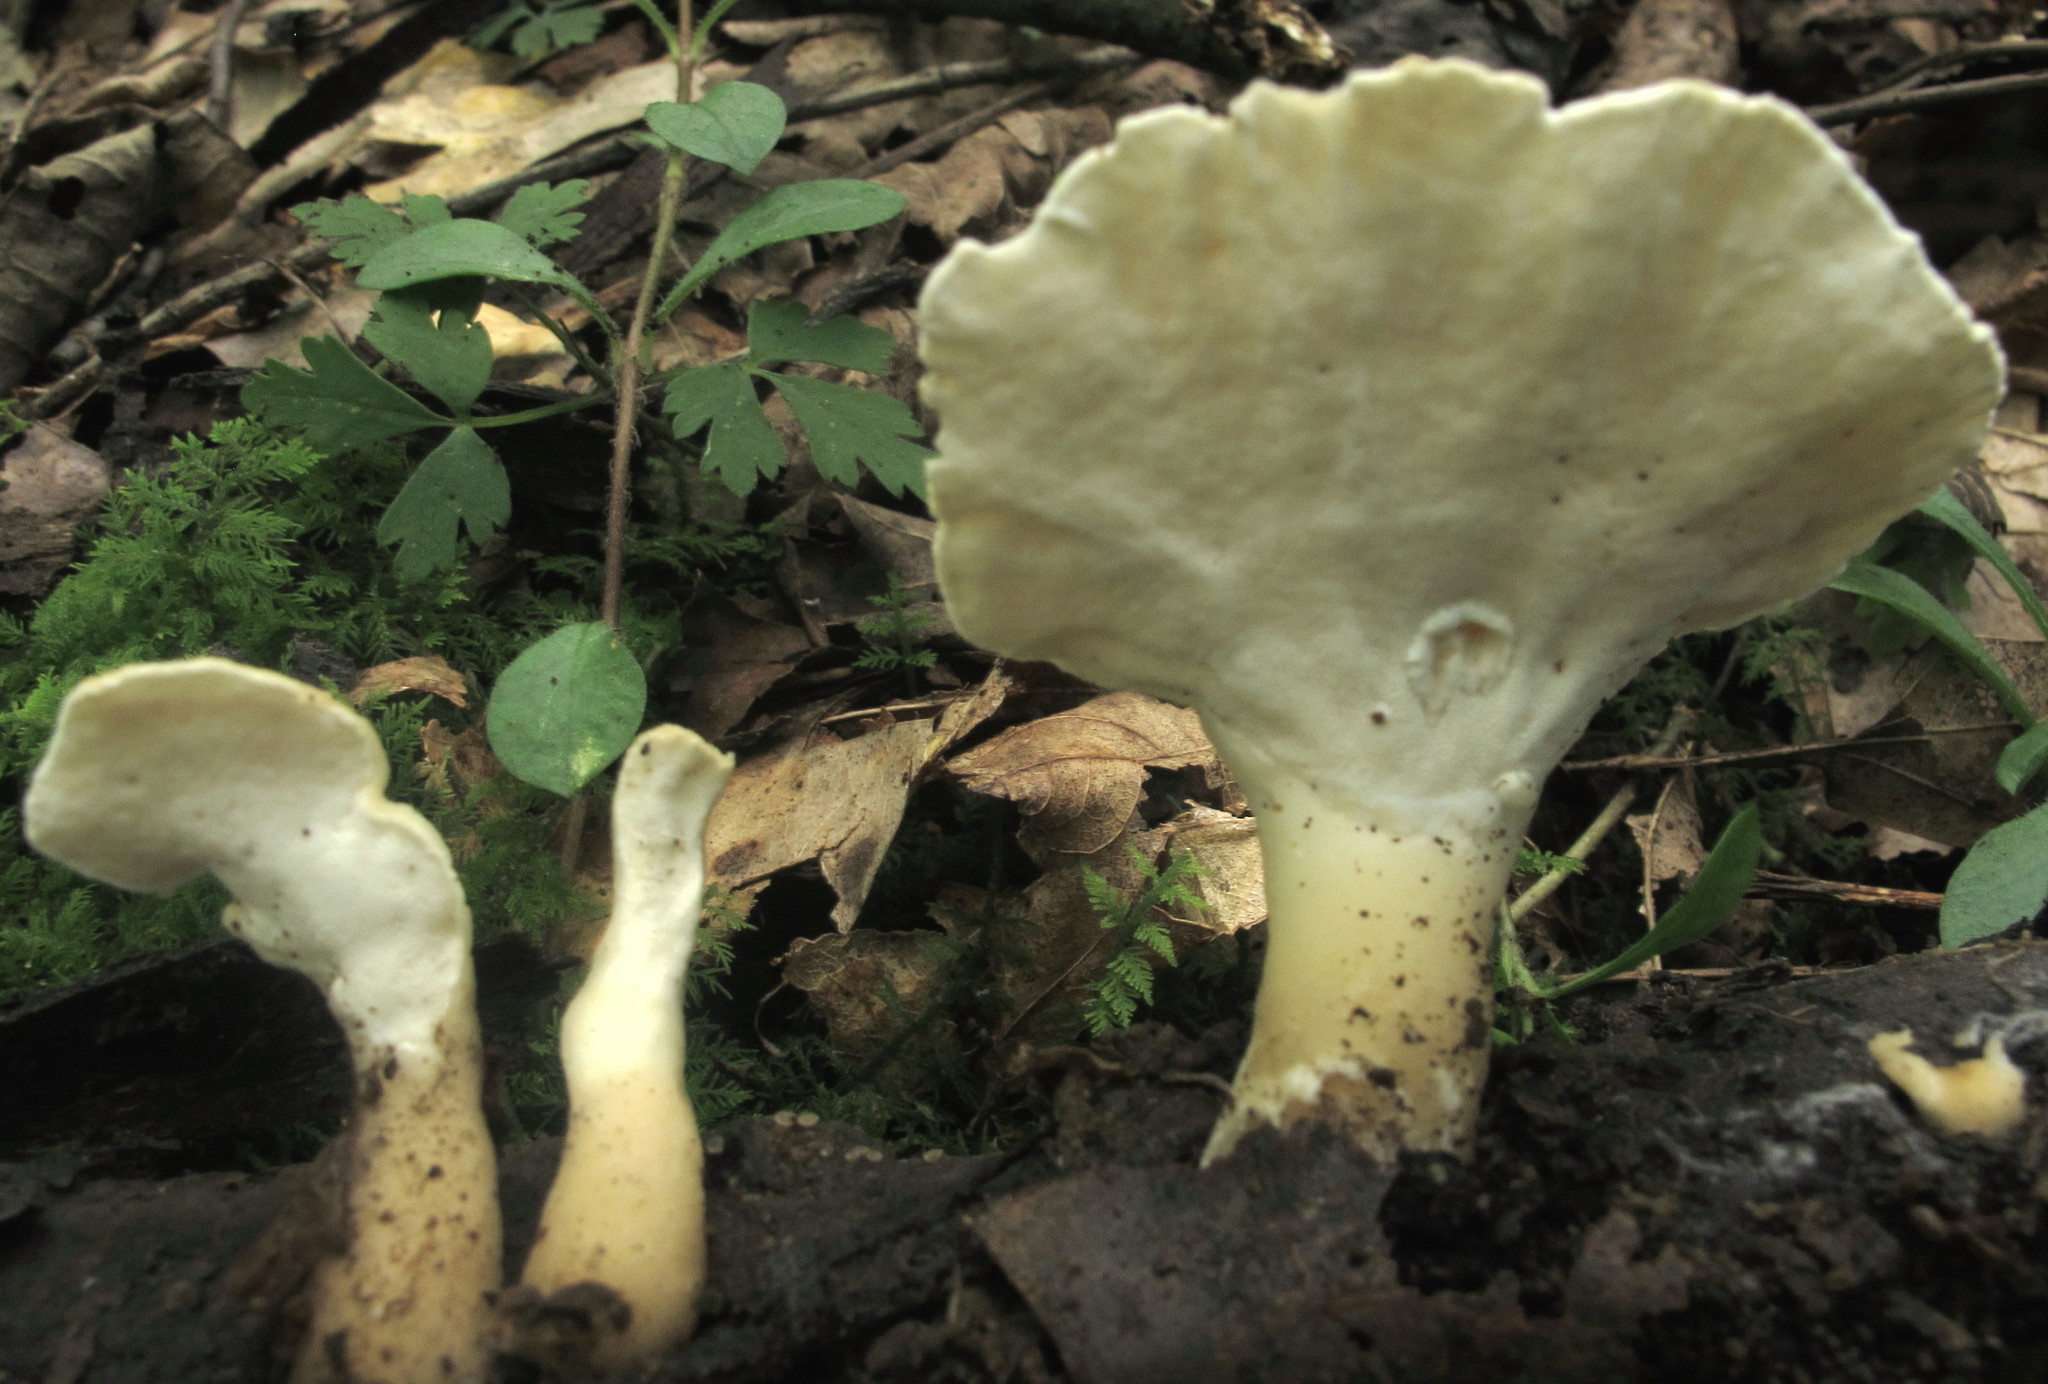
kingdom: Fungi
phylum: Basidiomycota
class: Agaricomycetes
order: Polyporales
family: Steccherinaceae
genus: Loweomyces
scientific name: Loweomyces fractipes
